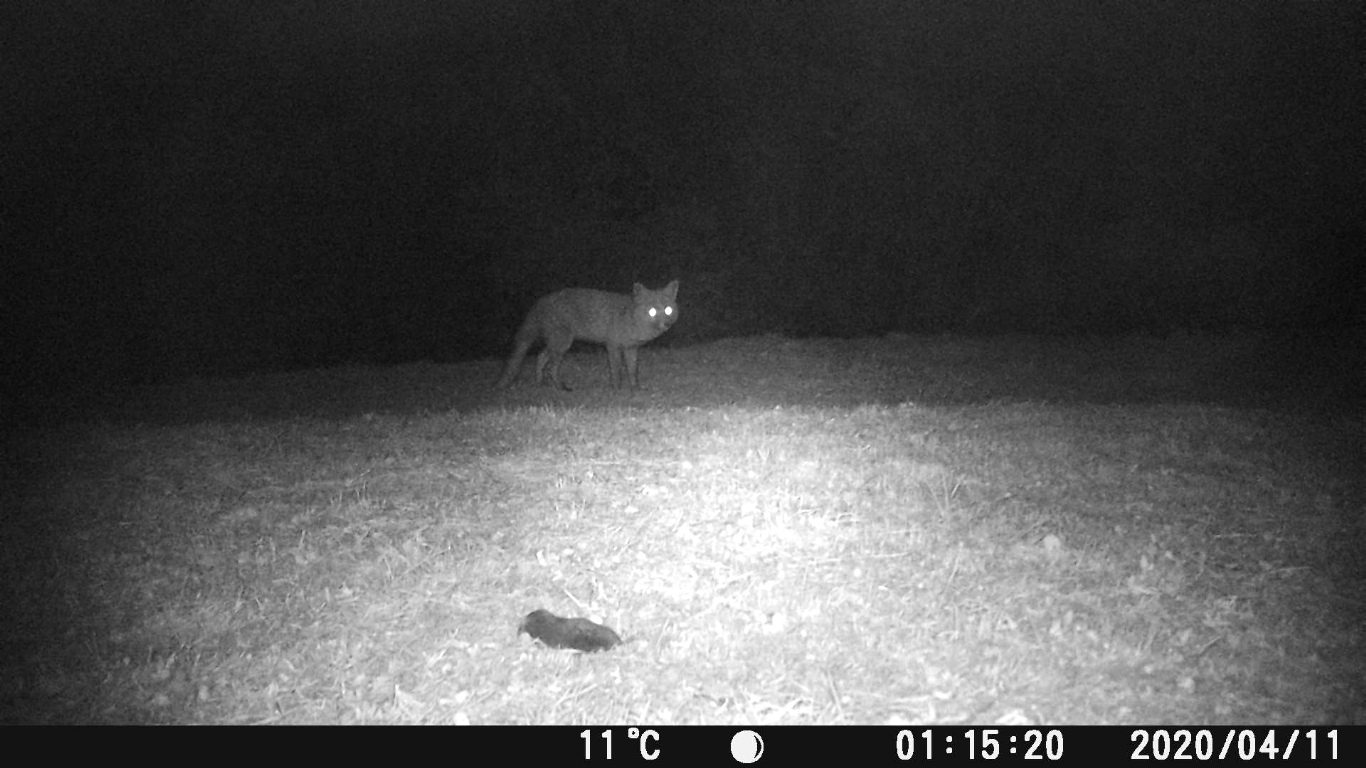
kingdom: Animalia
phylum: Chordata
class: Mammalia
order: Carnivora
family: Canidae
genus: Vulpes
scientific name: Vulpes vulpes
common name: Red fox
